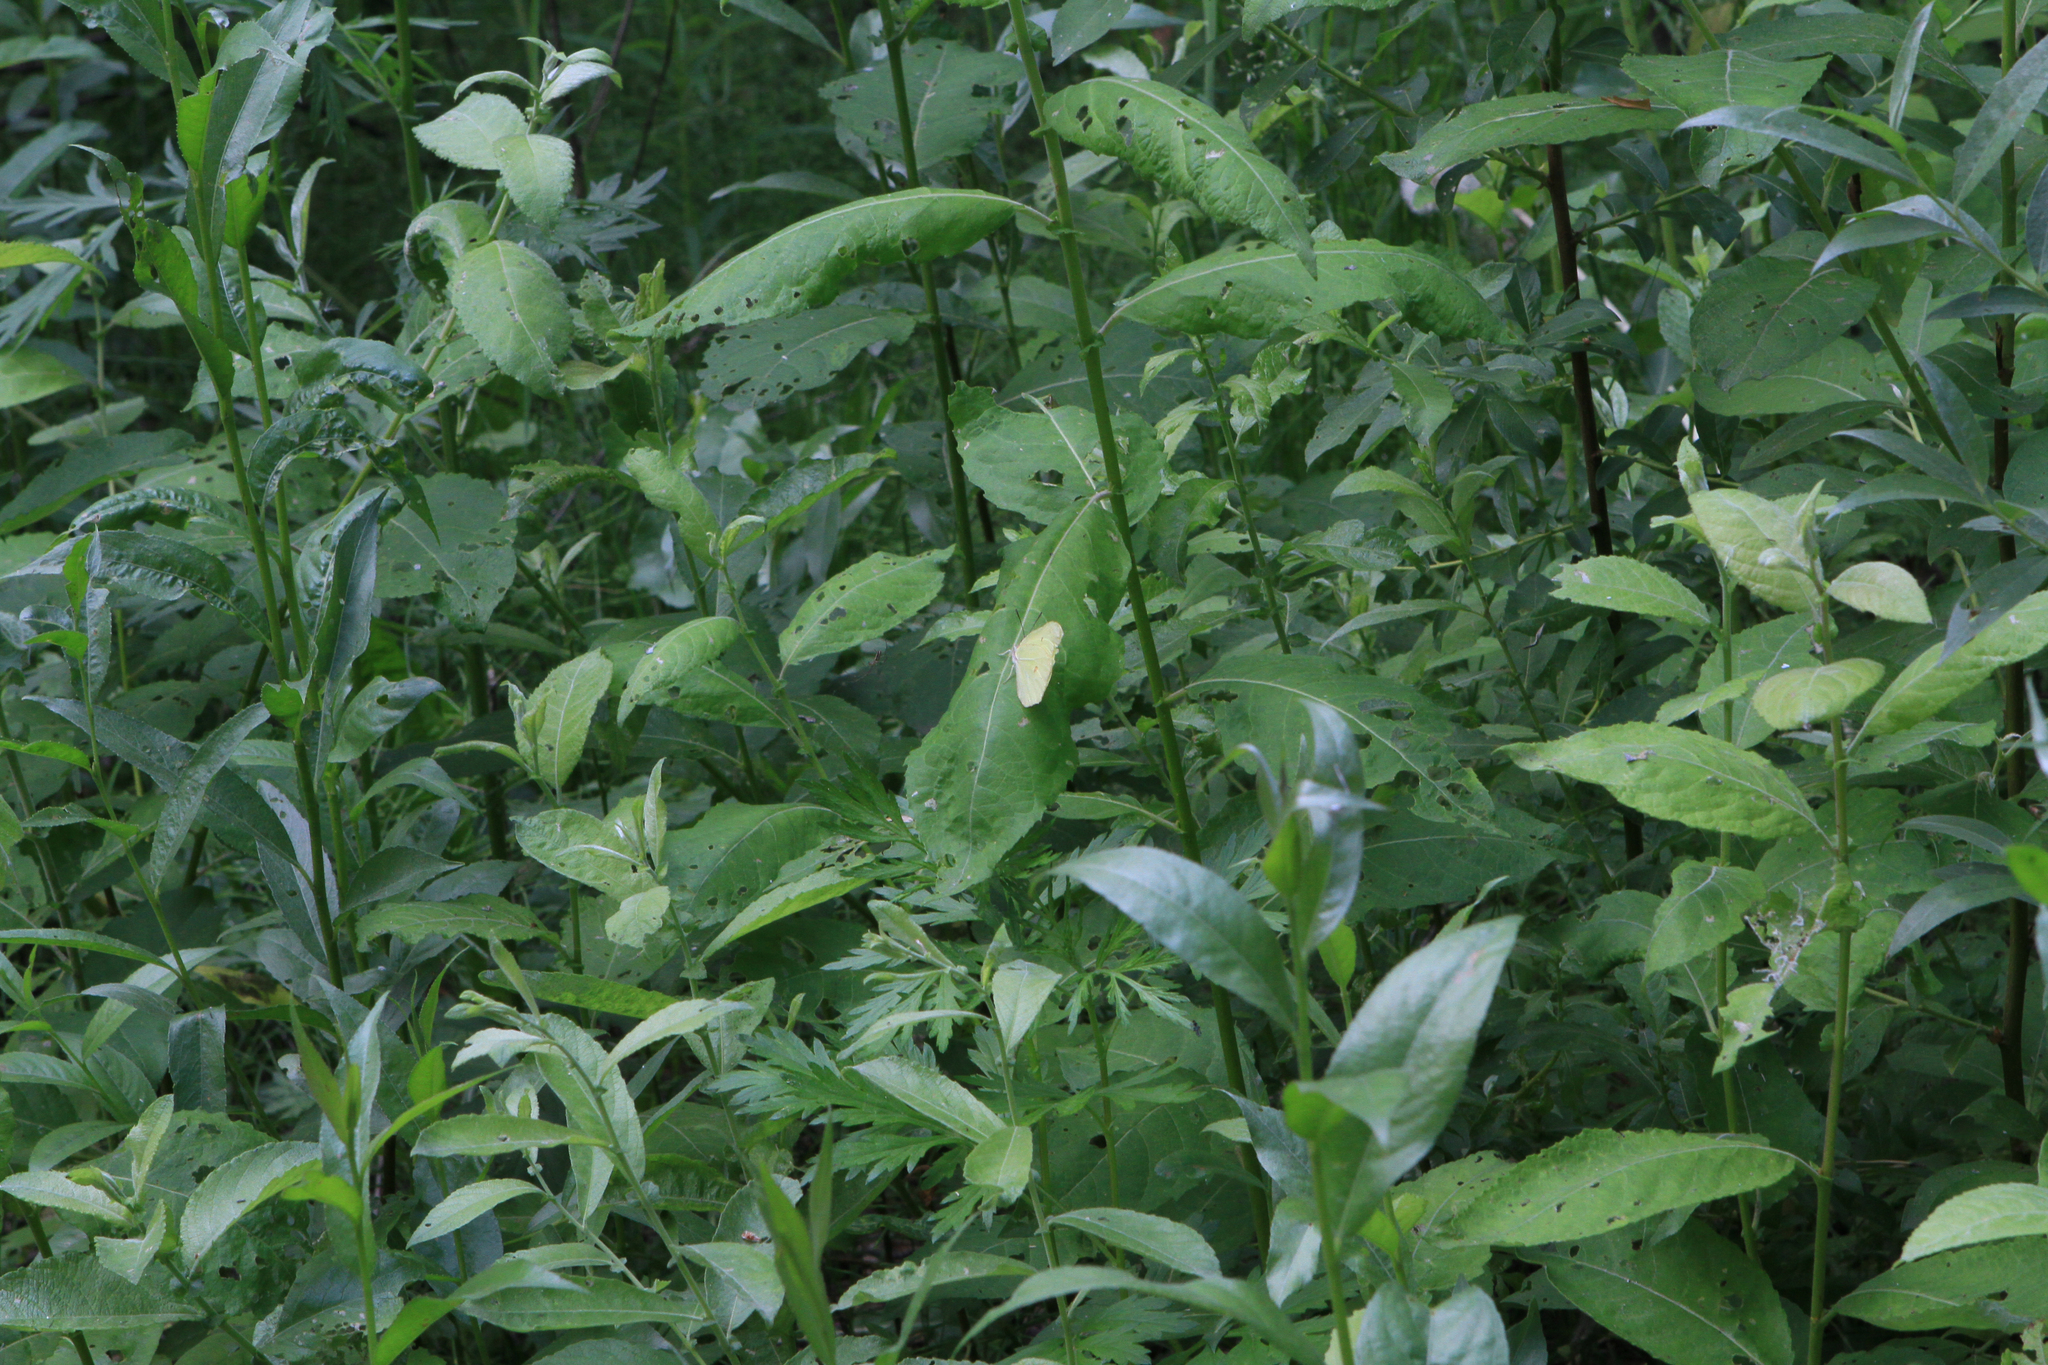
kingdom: Animalia
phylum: Arthropoda
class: Insecta
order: Lepidoptera
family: Pieridae
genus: Gonepteryx
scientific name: Gonepteryx rhamni
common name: Brimstone
